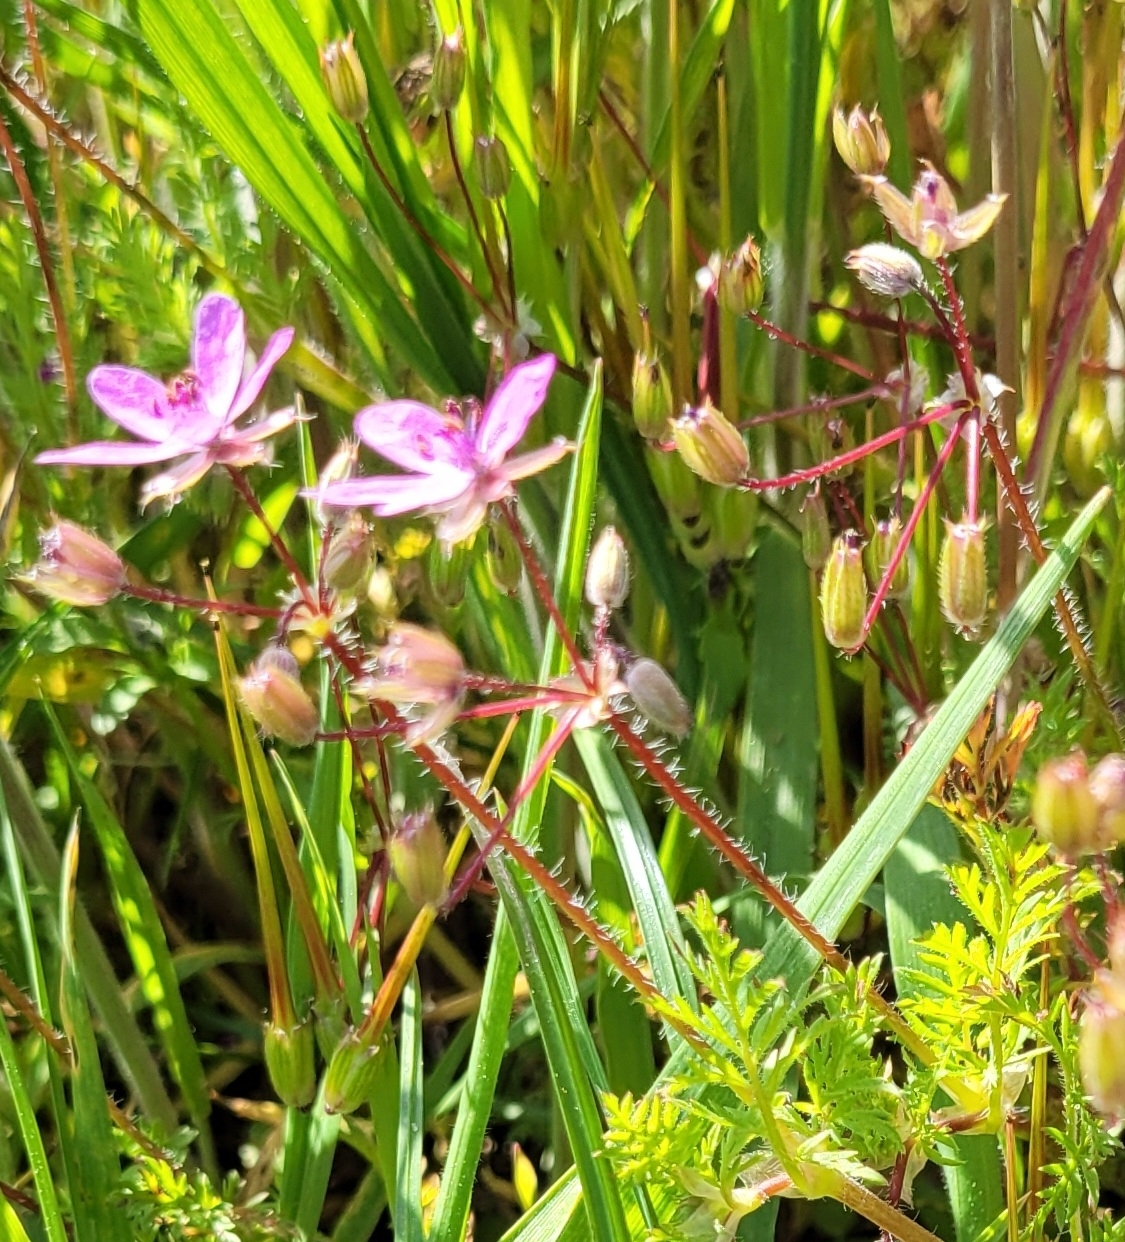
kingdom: Plantae
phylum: Tracheophyta
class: Magnoliopsida
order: Geraniales
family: Geraniaceae
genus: Erodium
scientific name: Erodium cicutarium
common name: Common stork's-bill
